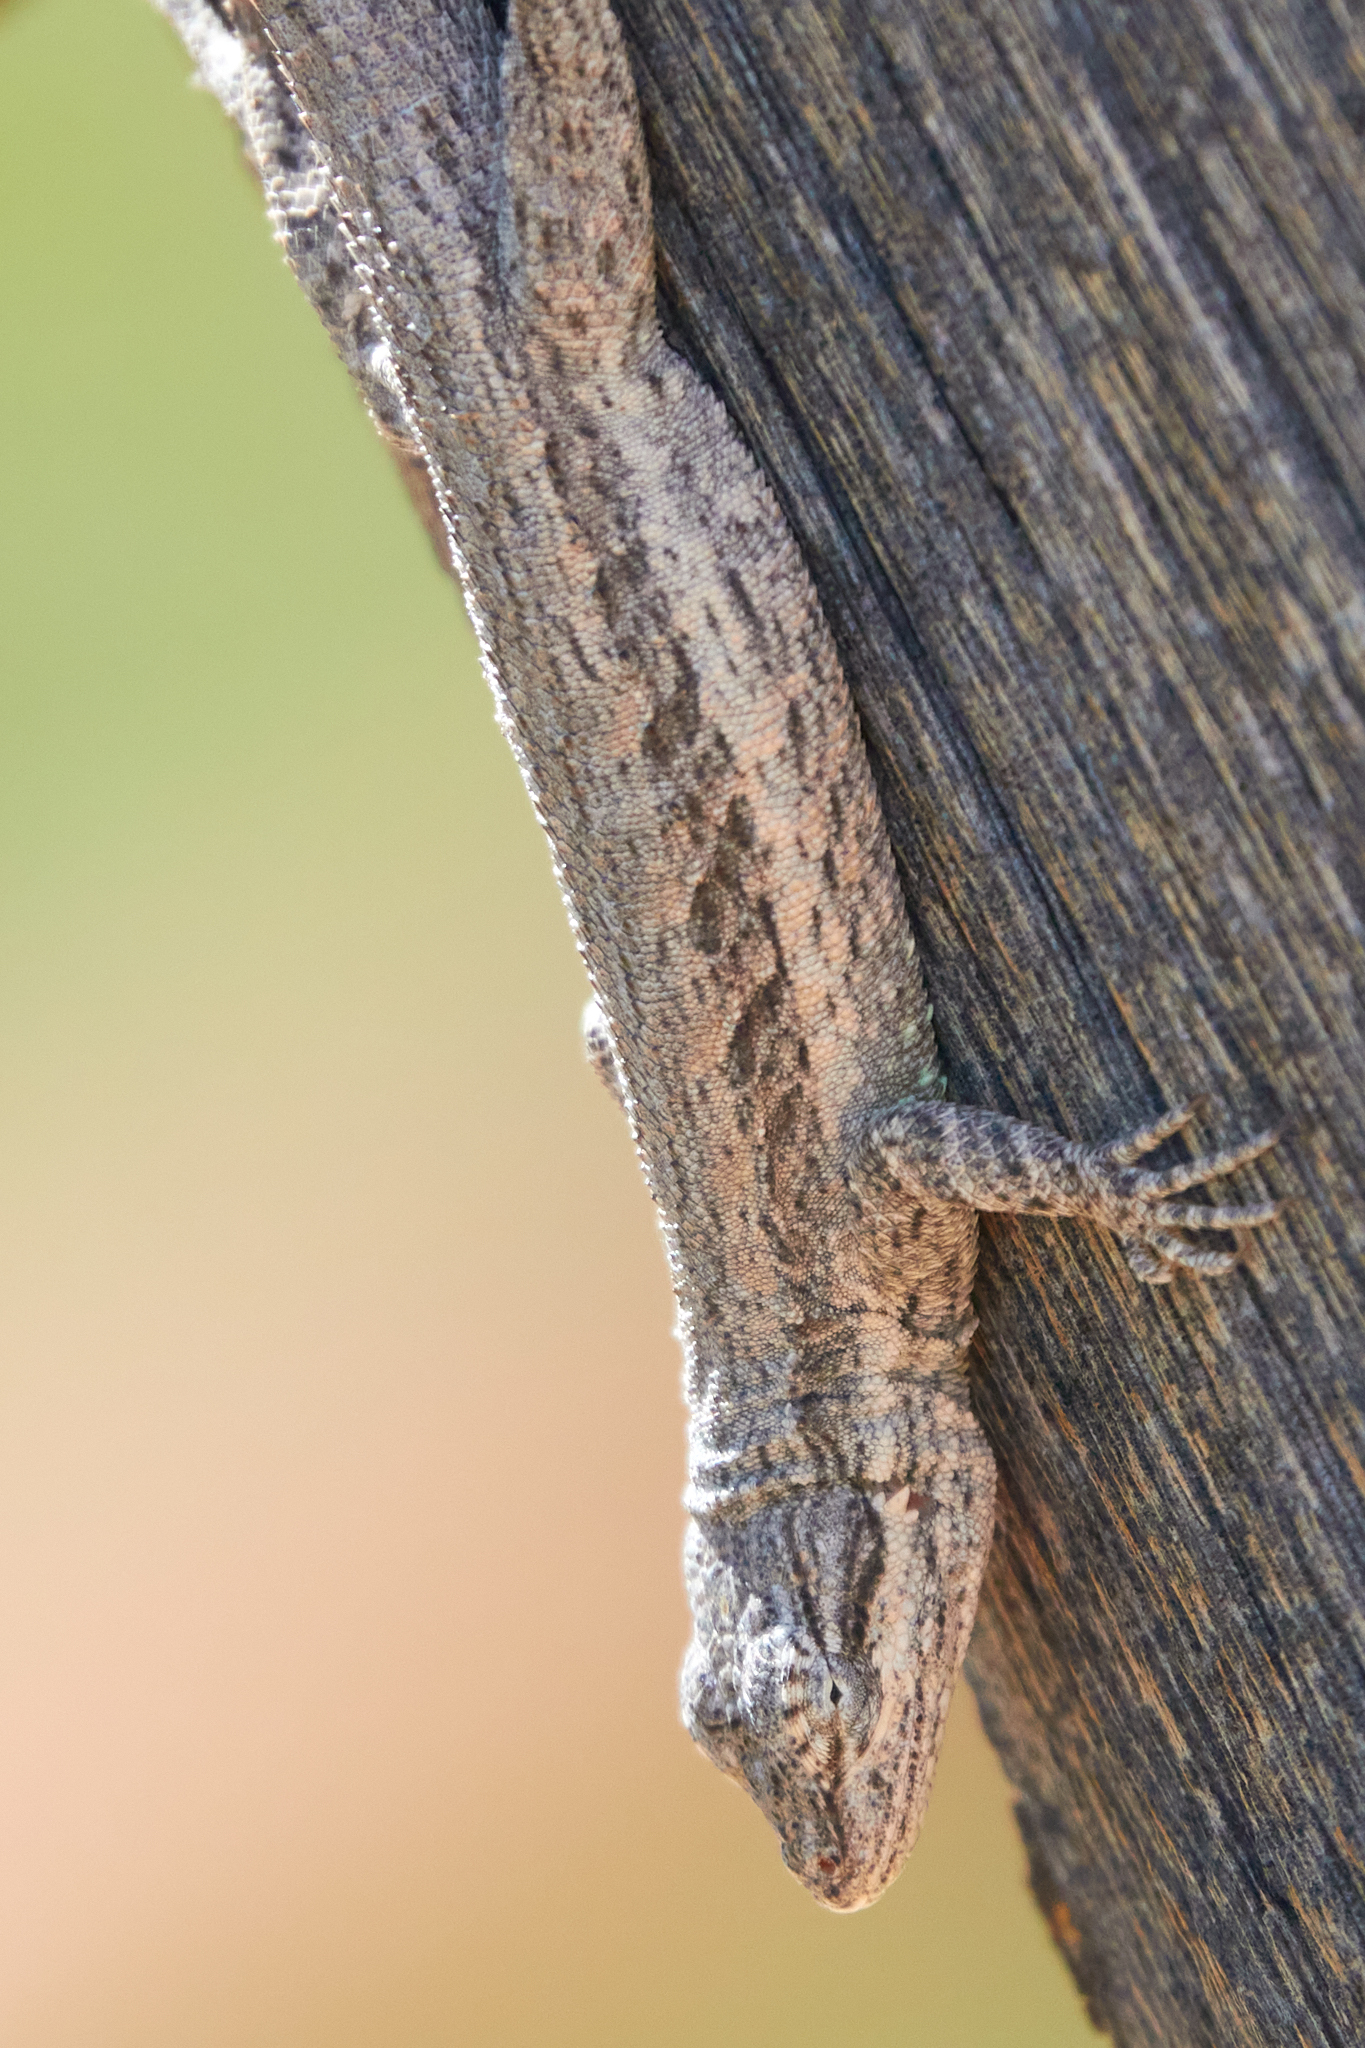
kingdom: Animalia
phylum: Chordata
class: Squamata
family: Phrynosomatidae
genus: Urosaurus
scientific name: Urosaurus graciosus
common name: Long-tailed brush lizard
